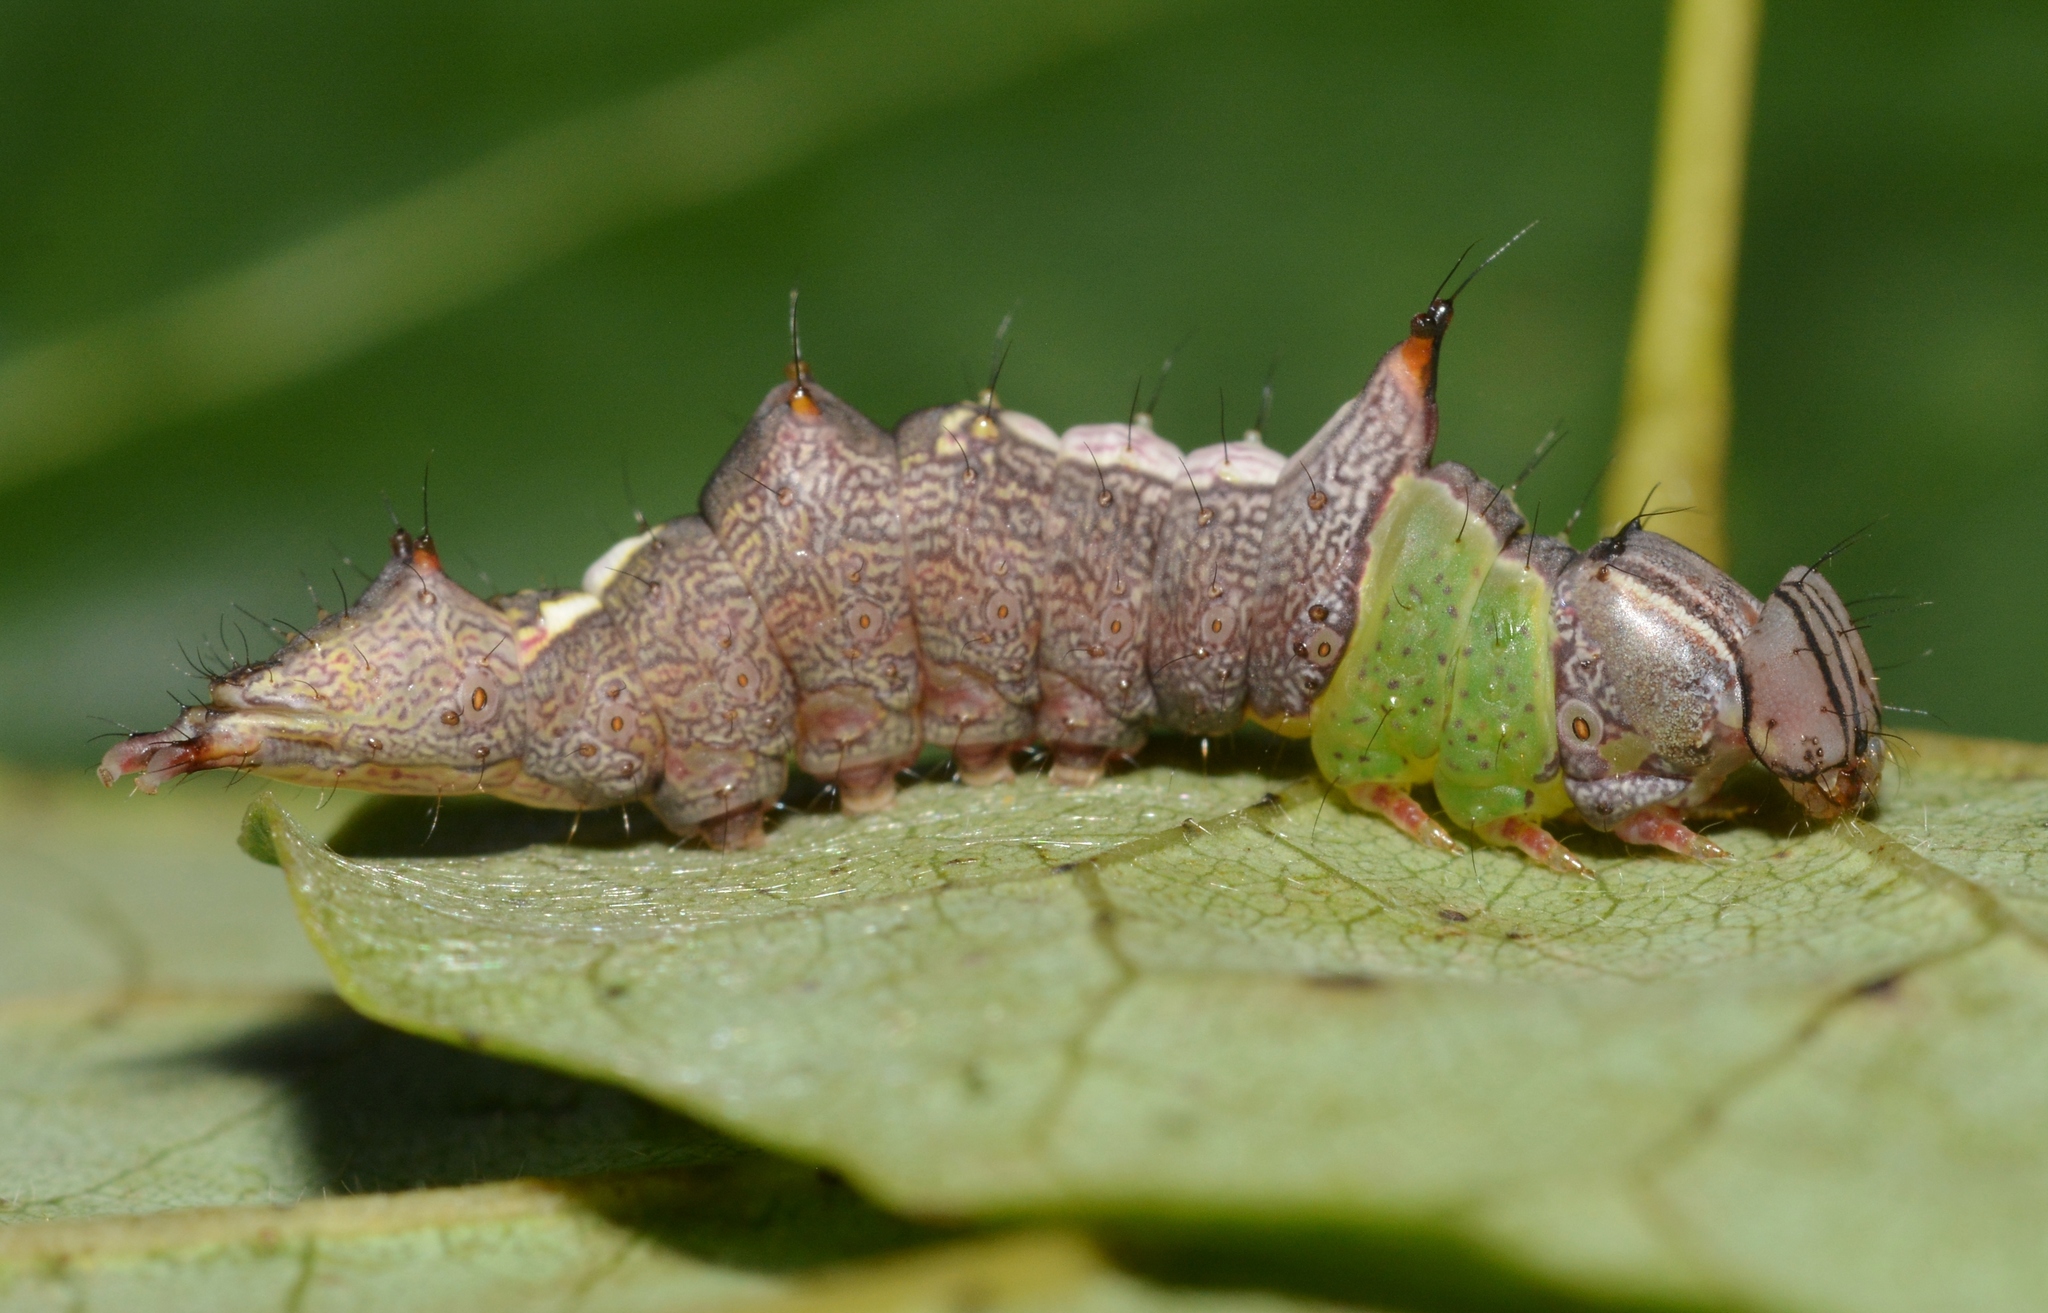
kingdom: Animalia
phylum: Arthropoda
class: Insecta
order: Lepidoptera
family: Notodontidae
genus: Schizura
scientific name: Schizura ipomaeae
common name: Morning-glory prominent
